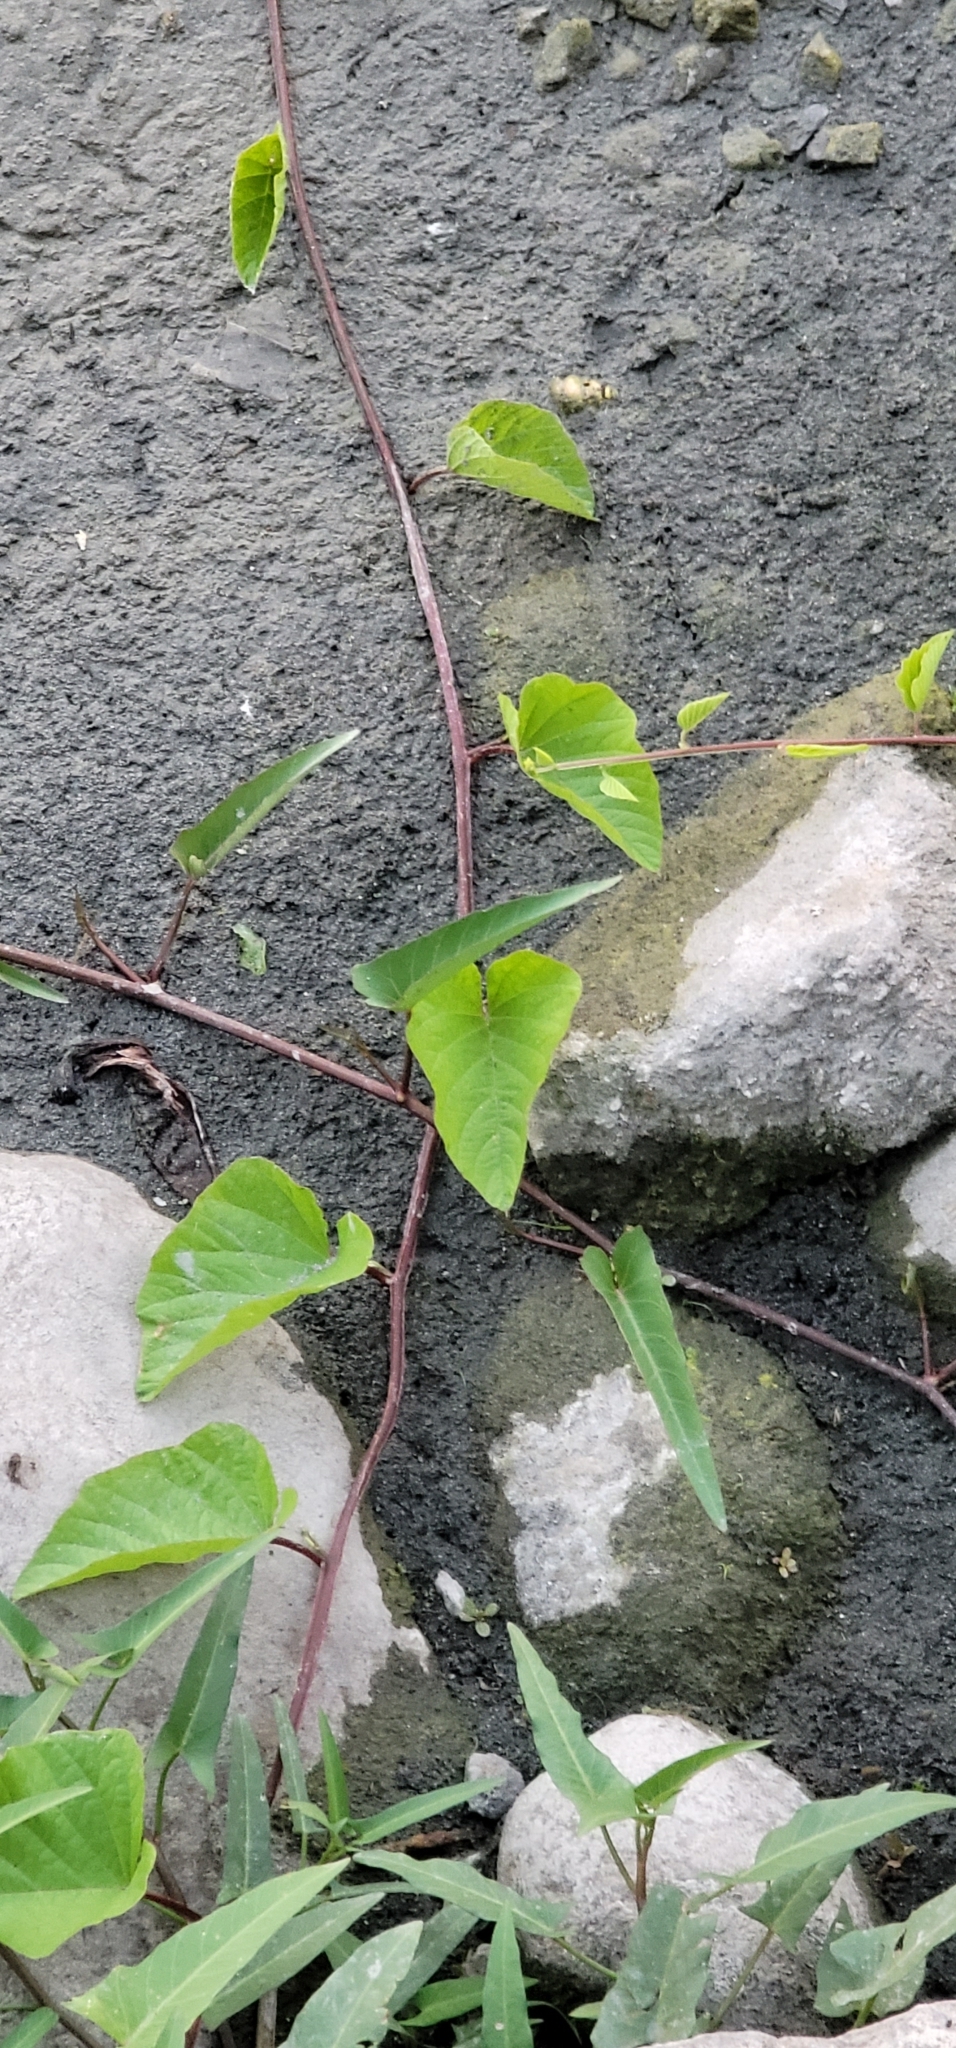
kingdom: Plantae
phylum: Tracheophyta
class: Magnoliopsida
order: Solanales
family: Convolvulaceae
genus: Operculina
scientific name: Operculina turpethum
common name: Transparent wood-rose
